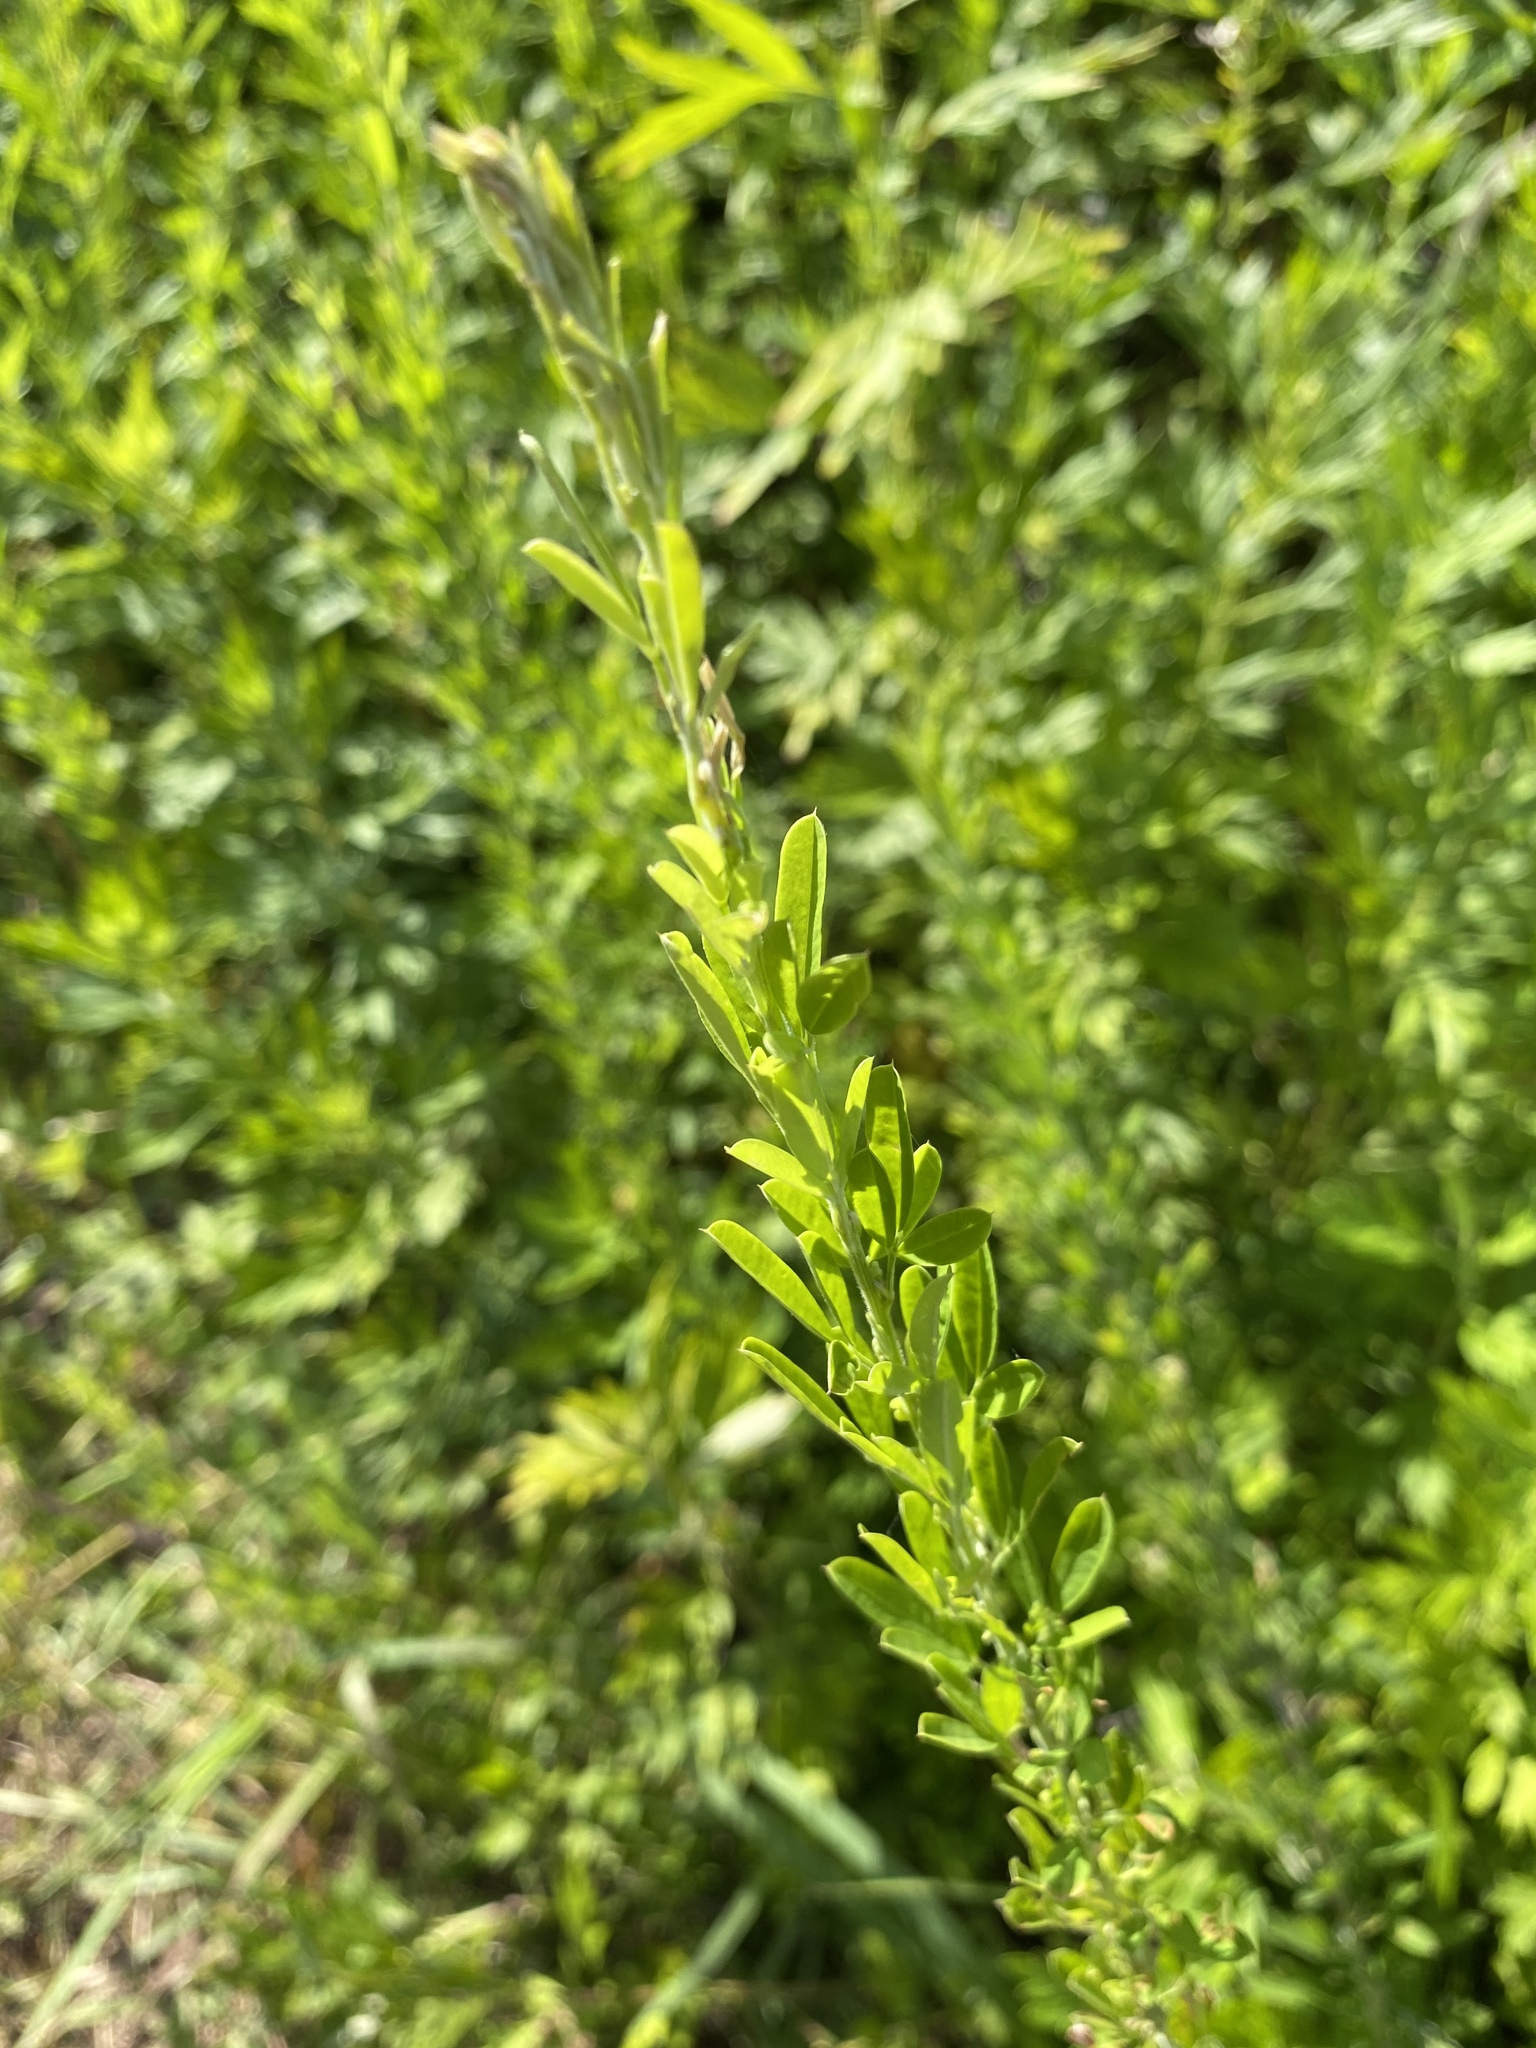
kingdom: Plantae
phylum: Tracheophyta
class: Magnoliopsida
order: Fabales
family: Fabaceae
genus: Lespedeza
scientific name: Lespedeza cuneata
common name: Chinese bush-clover
